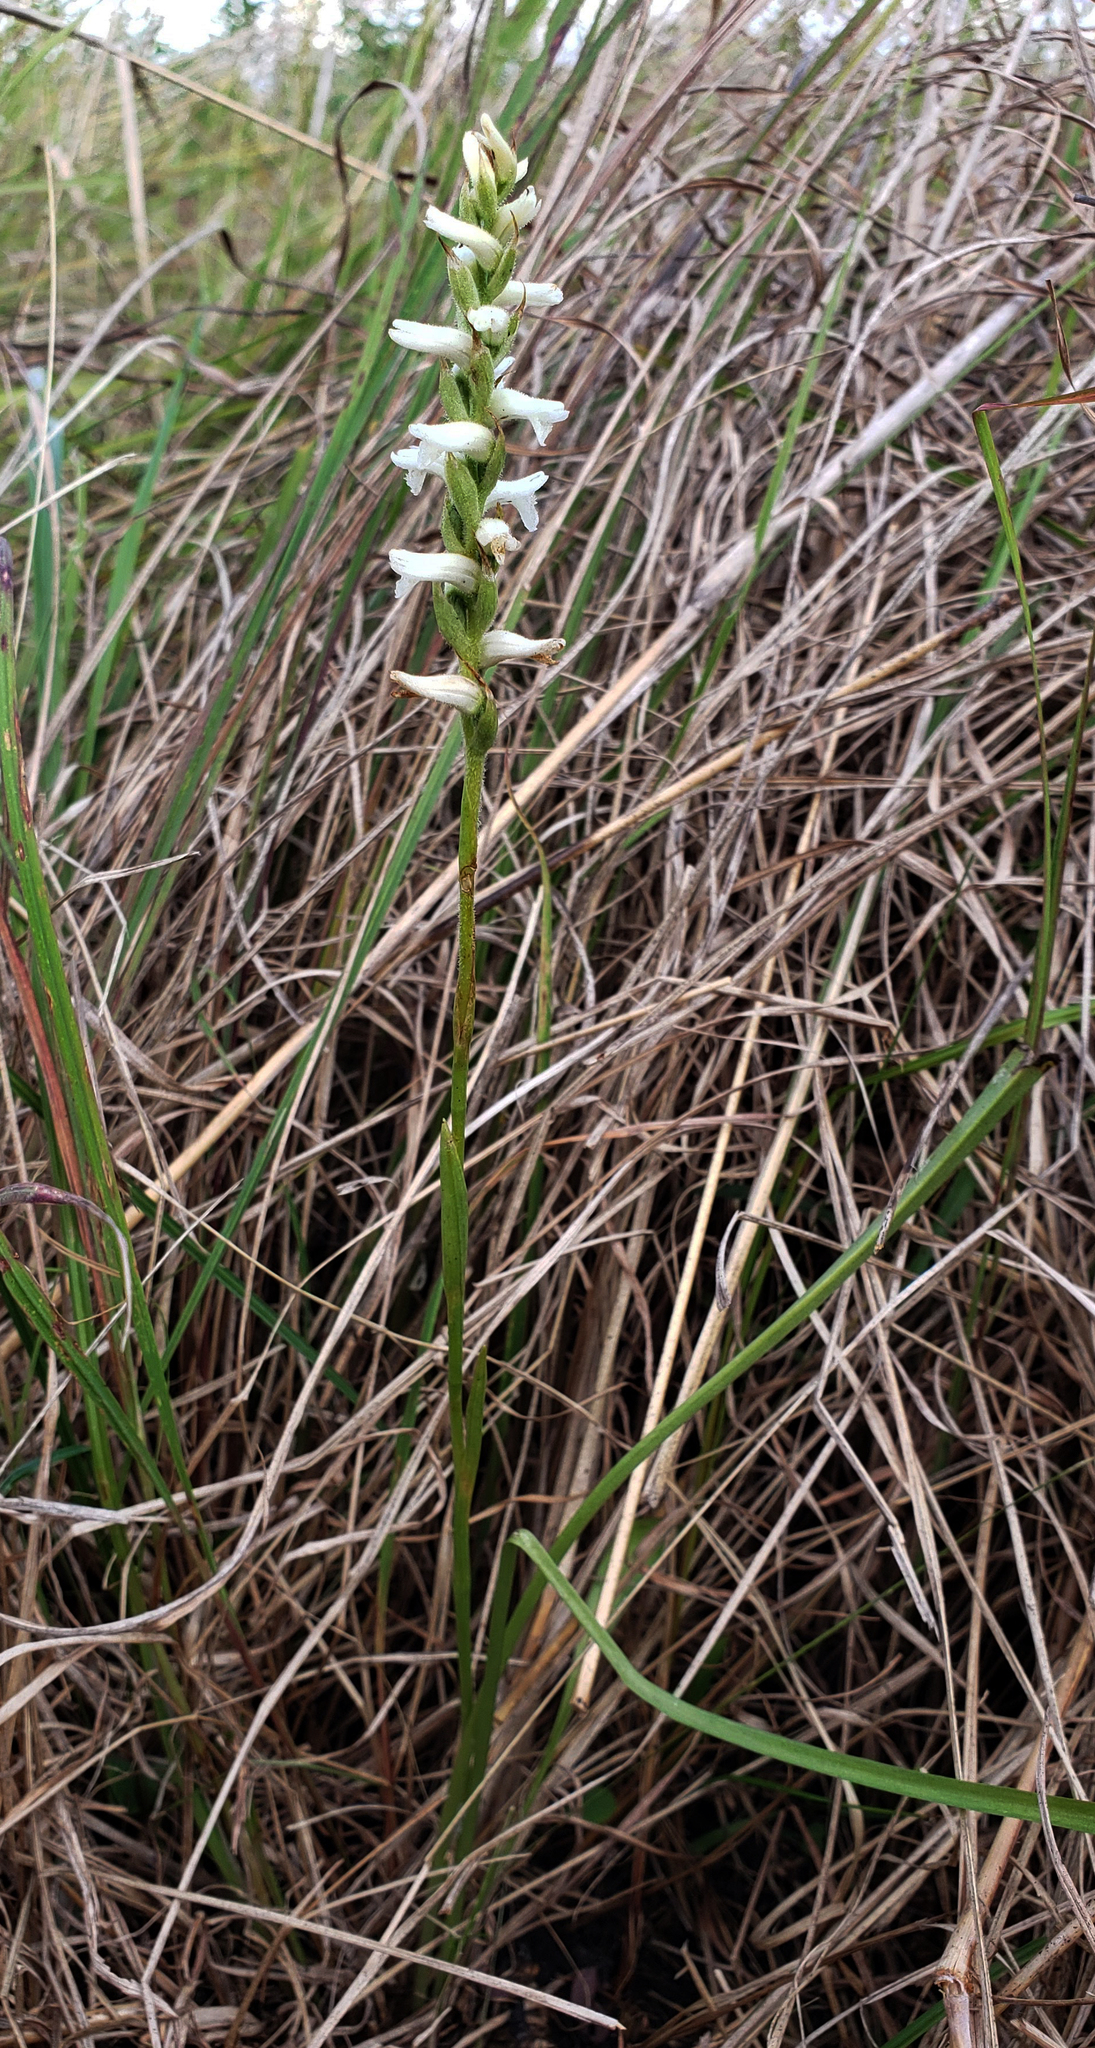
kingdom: Plantae
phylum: Tracheophyta
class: Liliopsida
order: Asparagales
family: Orchidaceae
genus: Spiranthes
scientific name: Spiranthes incurva
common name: Sphinx ladies'-tresses
